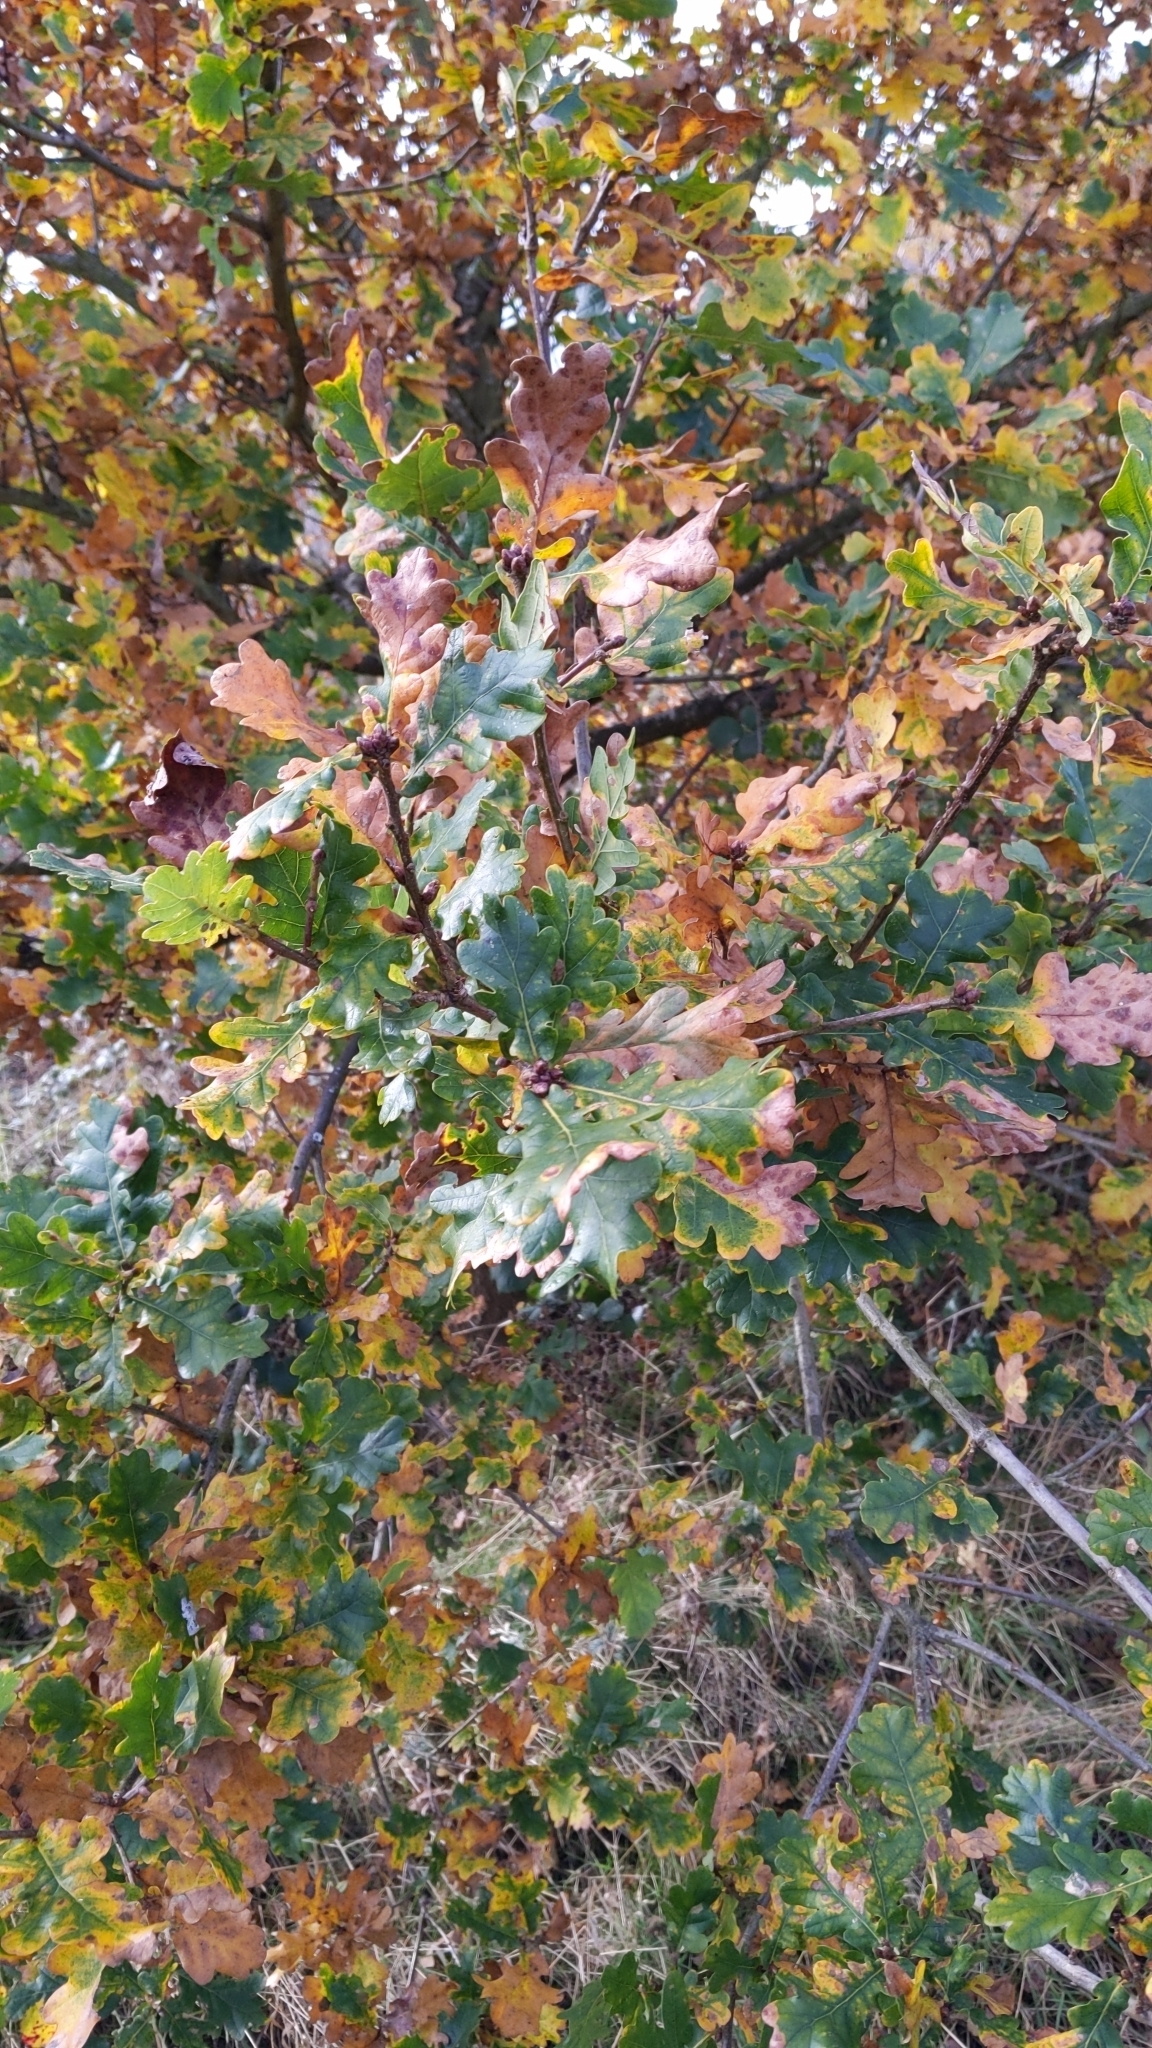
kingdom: Plantae
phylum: Tracheophyta
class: Magnoliopsida
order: Fagales
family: Fagaceae
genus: Quercus
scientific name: Quercus robur
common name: Pedunculate oak
